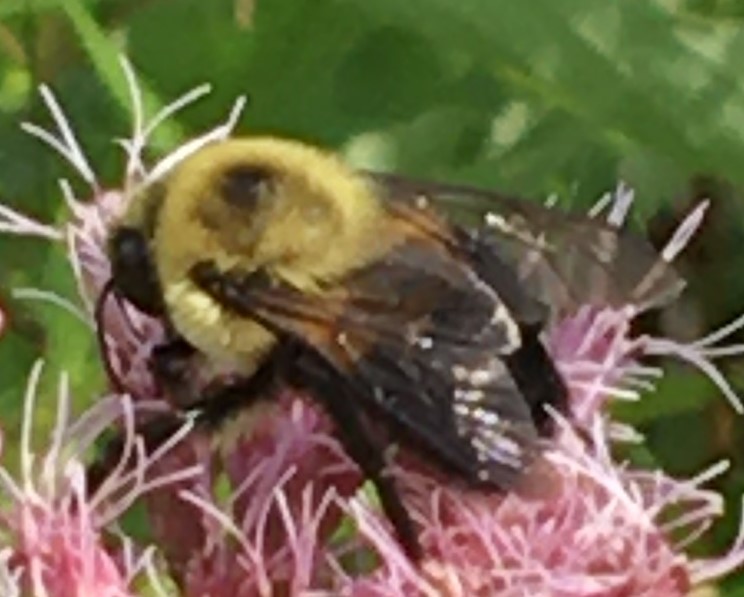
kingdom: Animalia
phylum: Arthropoda
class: Insecta
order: Hymenoptera
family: Apidae
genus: Bombus
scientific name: Bombus griseocollis
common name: Brown-belted bumble bee
